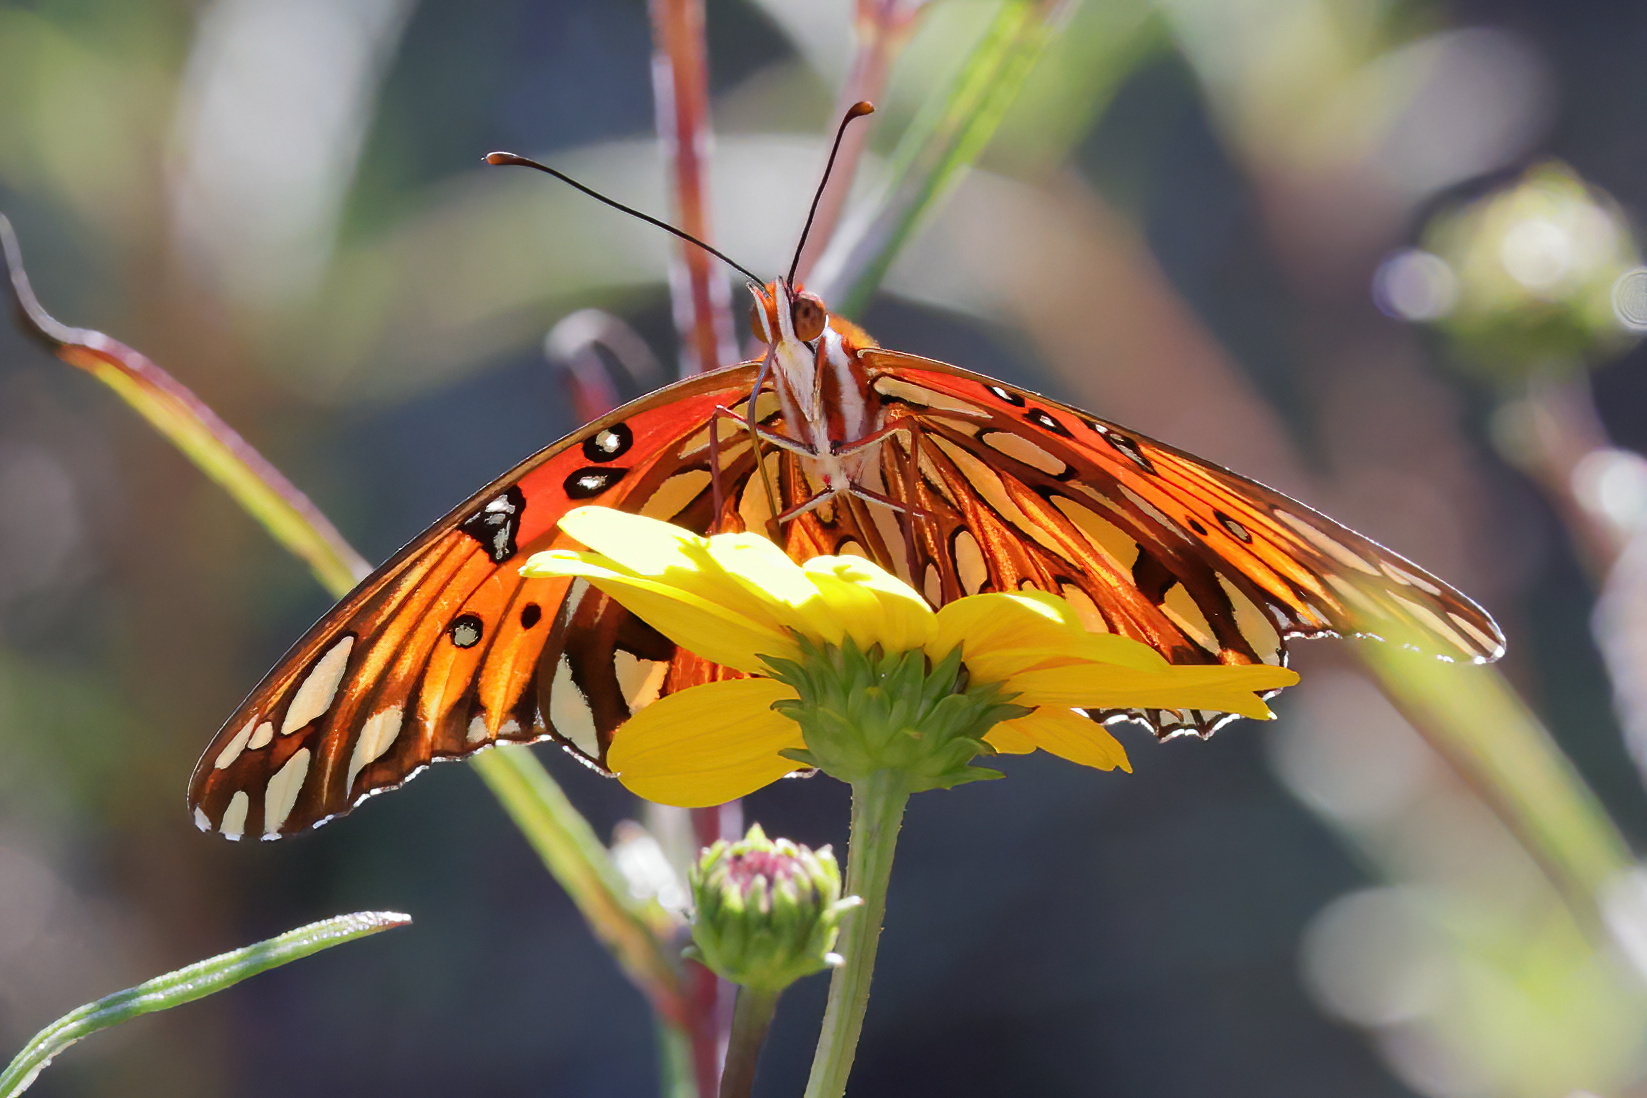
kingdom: Animalia
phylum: Arthropoda
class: Insecta
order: Lepidoptera
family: Nymphalidae
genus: Dione
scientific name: Dione vanillae
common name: Gulf fritillary
